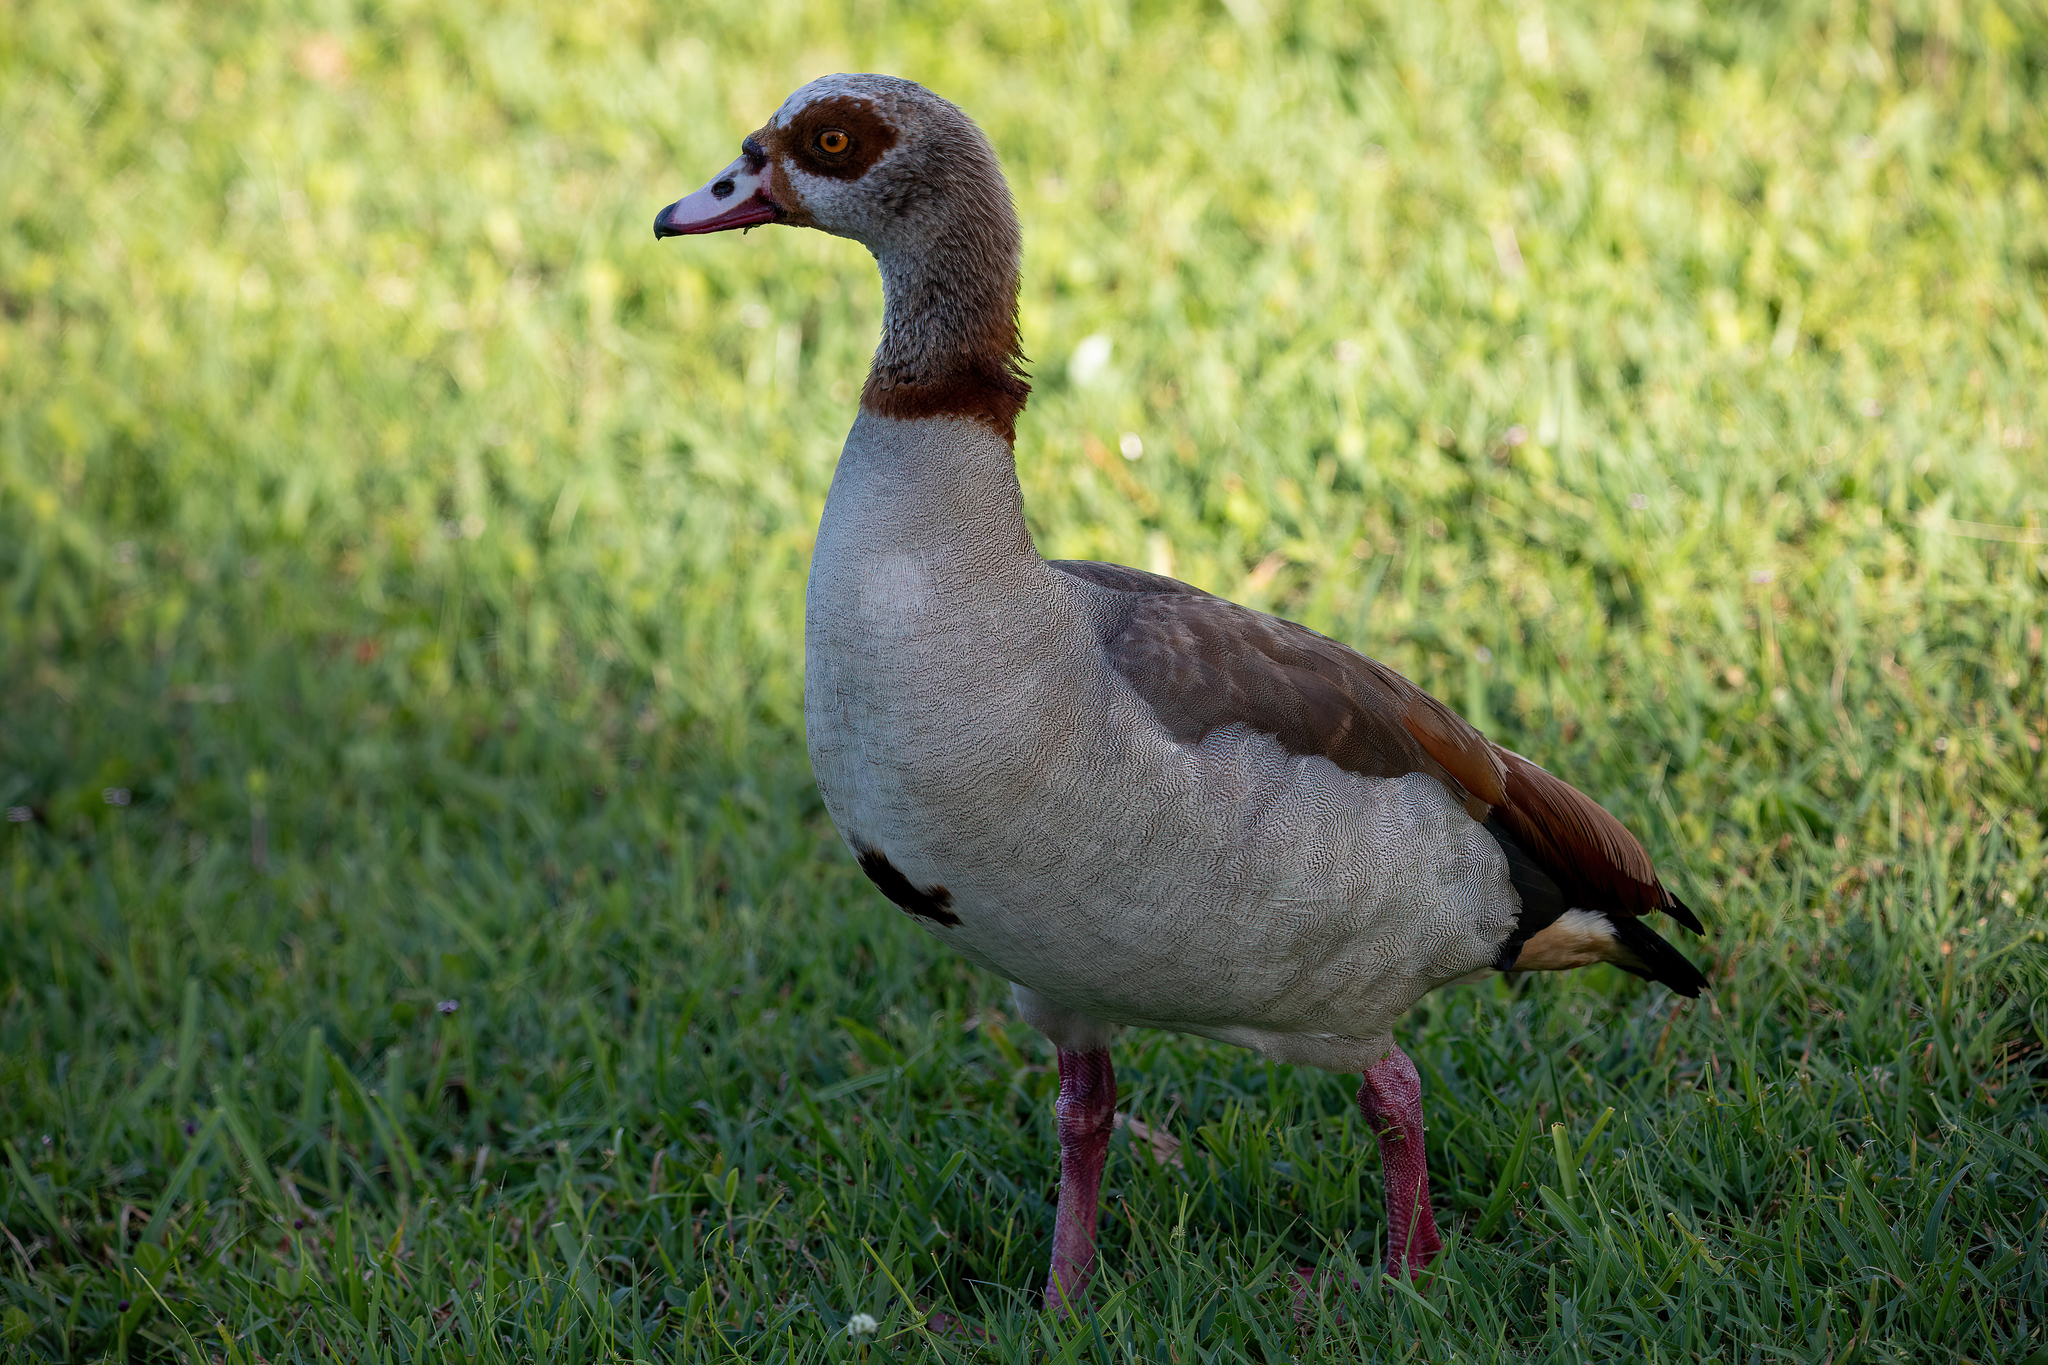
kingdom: Animalia
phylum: Chordata
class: Aves
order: Anseriformes
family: Anatidae
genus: Alopochen
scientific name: Alopochen aegyptiaca
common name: Egyptian goose
